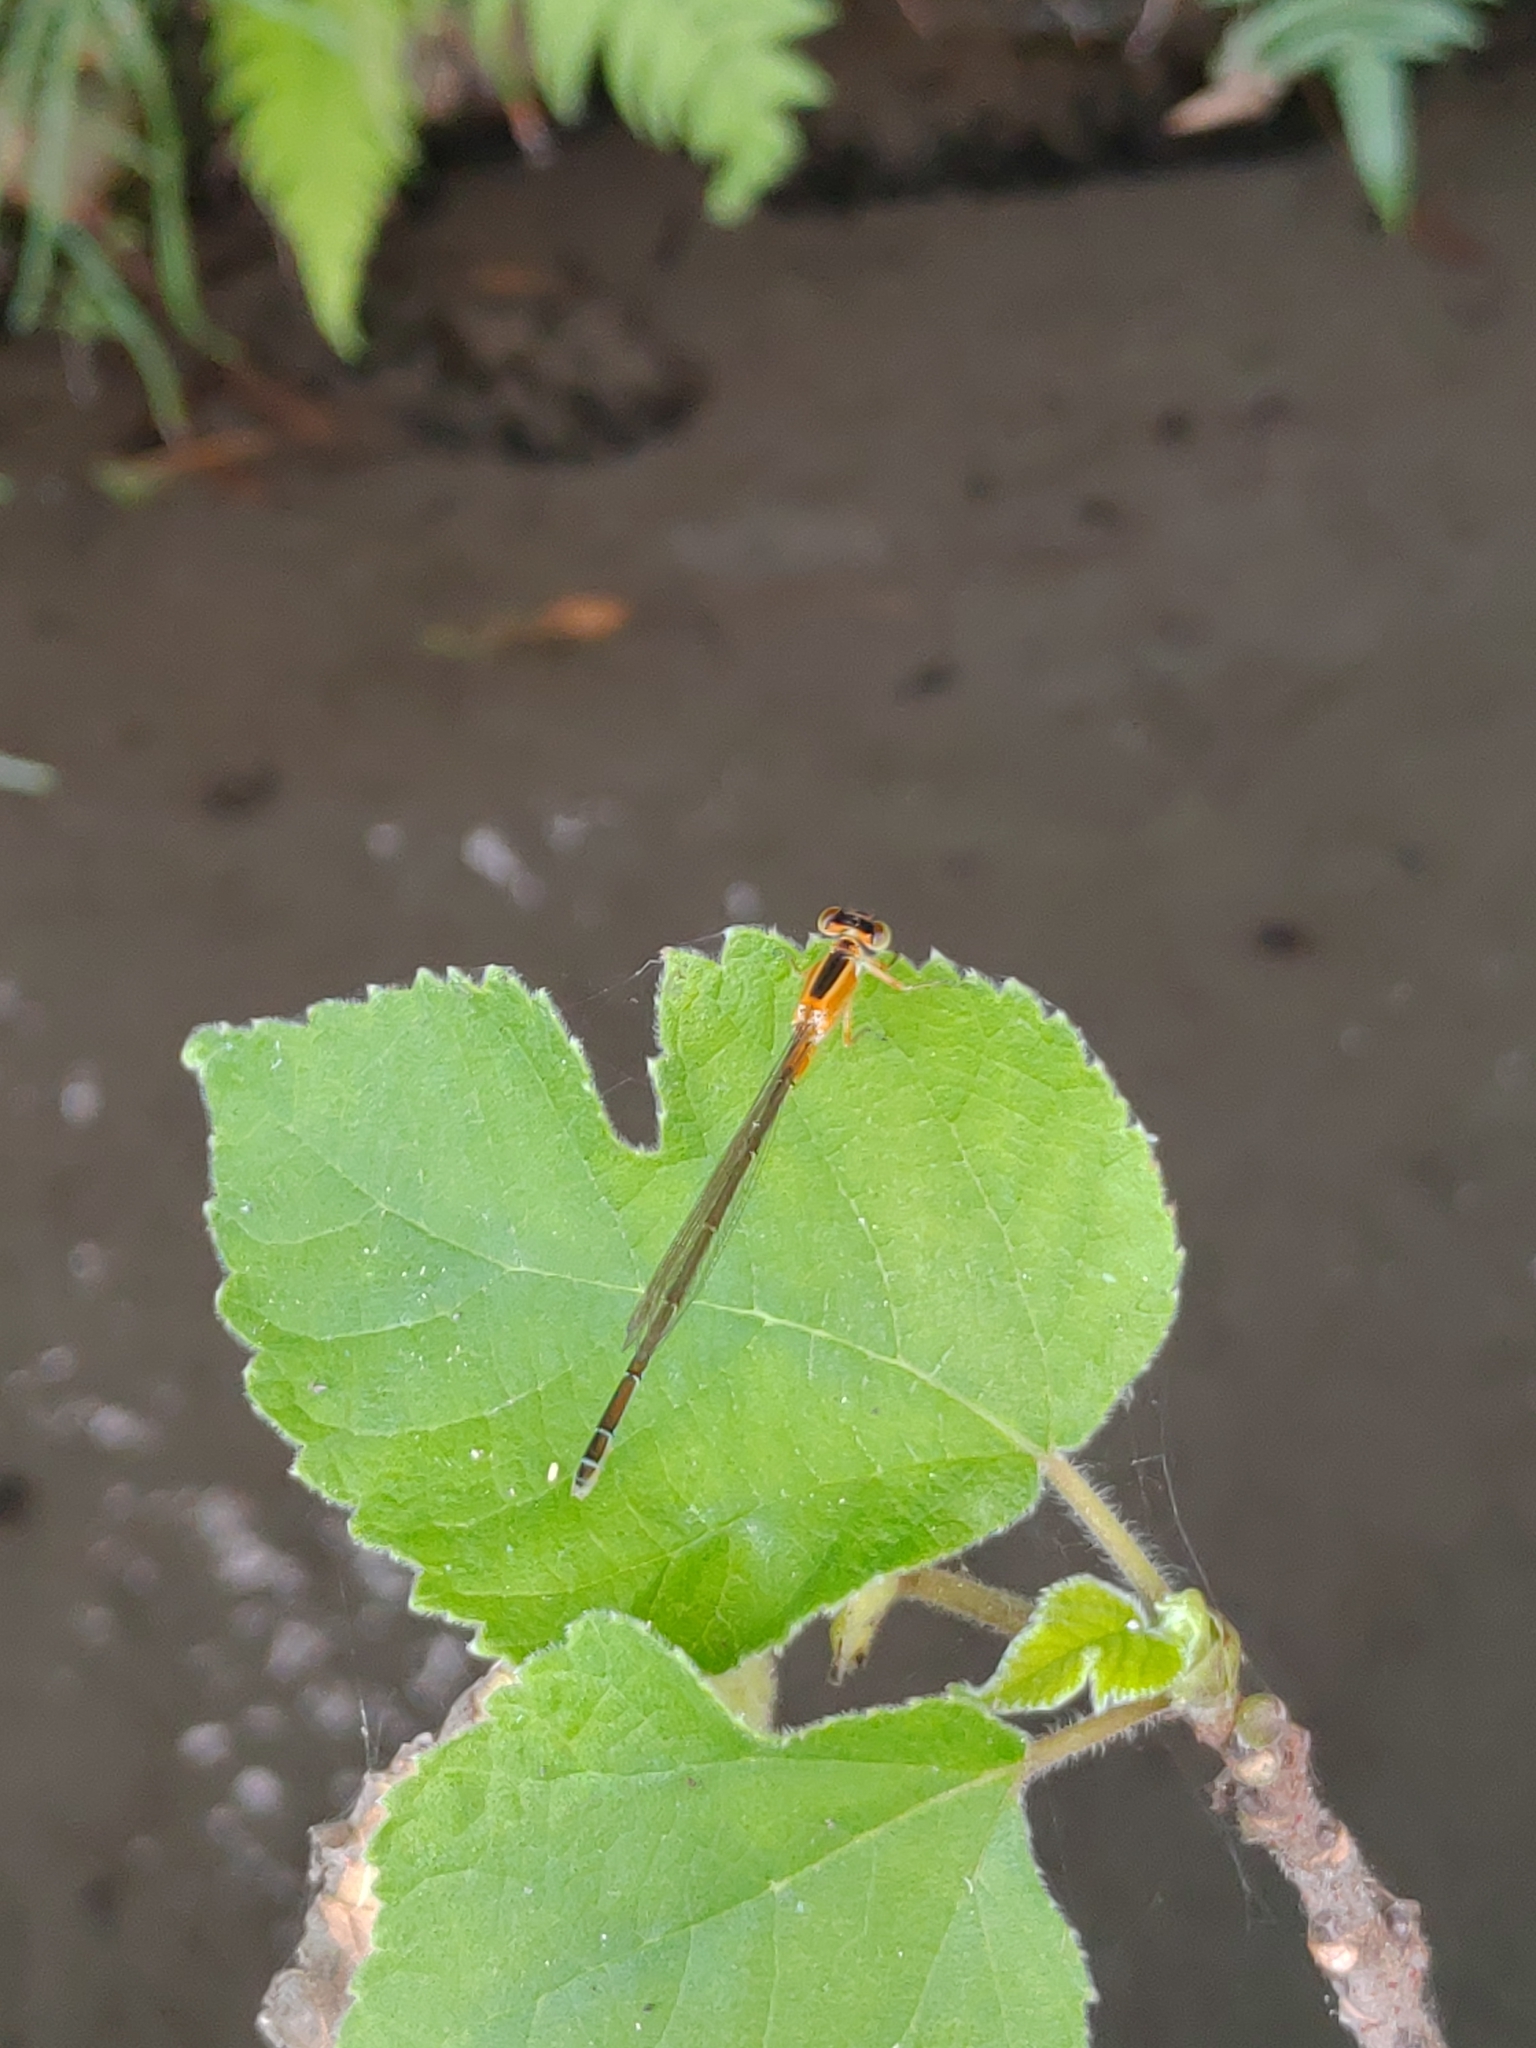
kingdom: Animalia
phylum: Arthropoda
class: Insecta
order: Odonata
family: Coenagrionidae
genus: Ischnura
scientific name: Ischnura senegalensis
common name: Tropical bluetail
